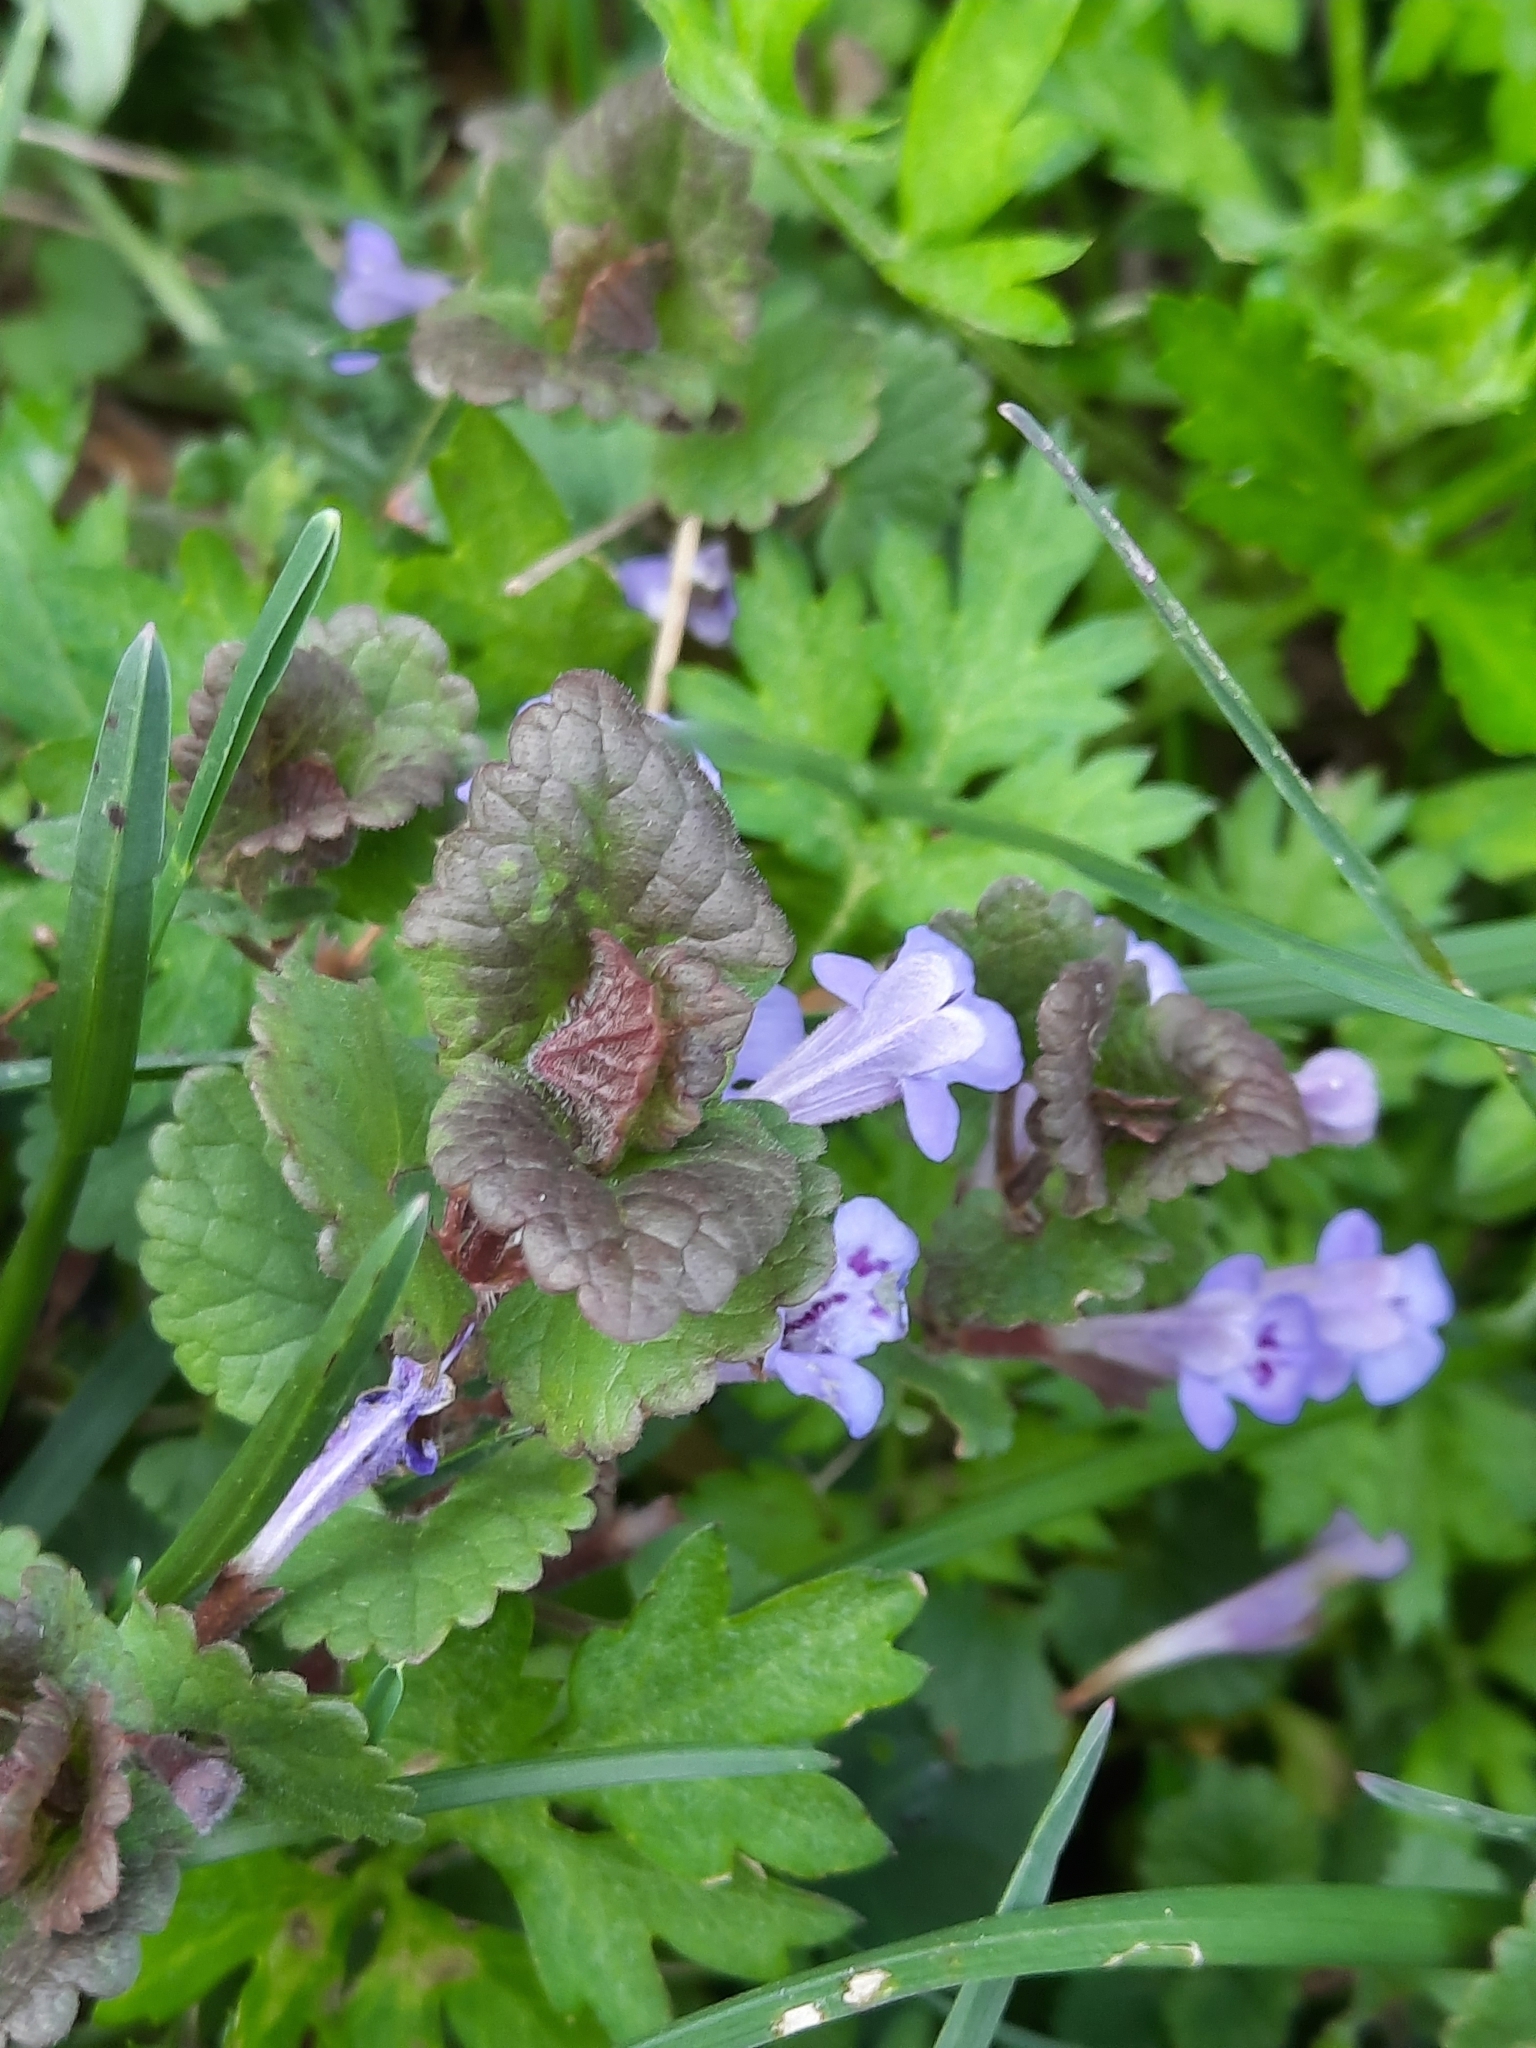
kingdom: Plantae
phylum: Tracheophyta
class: Magnoliopsida
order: Lamiales
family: Lamiaceae
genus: Glechoma
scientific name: Glechoma hederacea
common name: Ground ivy
